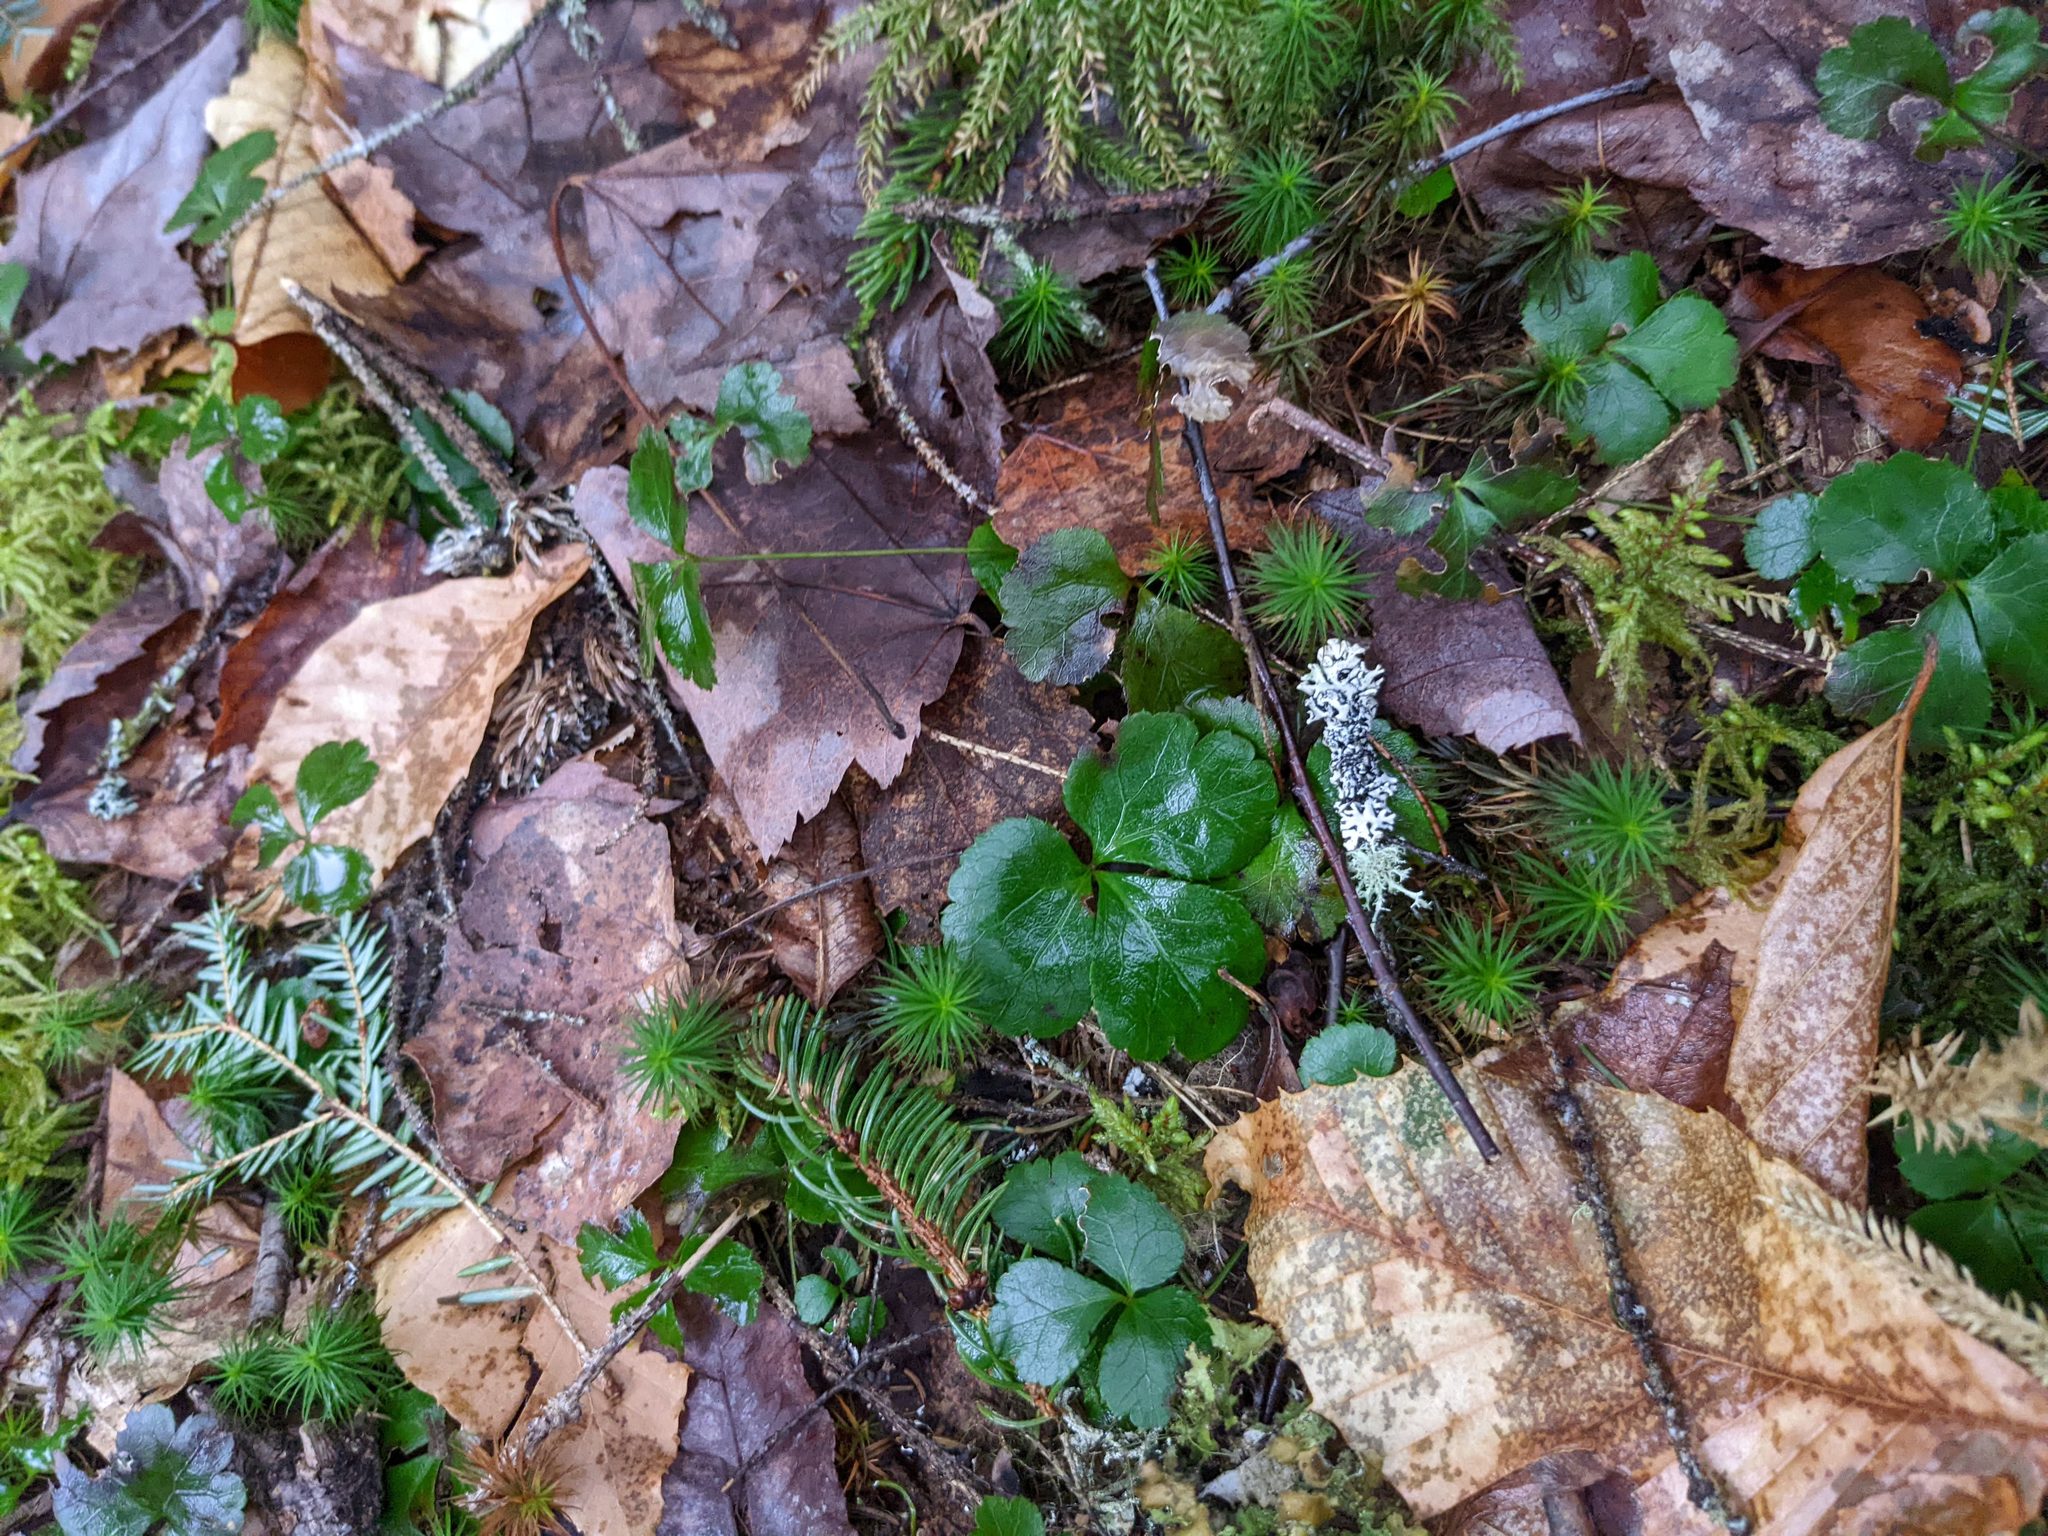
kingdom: Plantae
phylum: Tracheophyta
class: Magnoliopsida
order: Ranunculales
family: Ranunculaceae
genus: Coptis
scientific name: Coptis trifolia
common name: Canker-root
